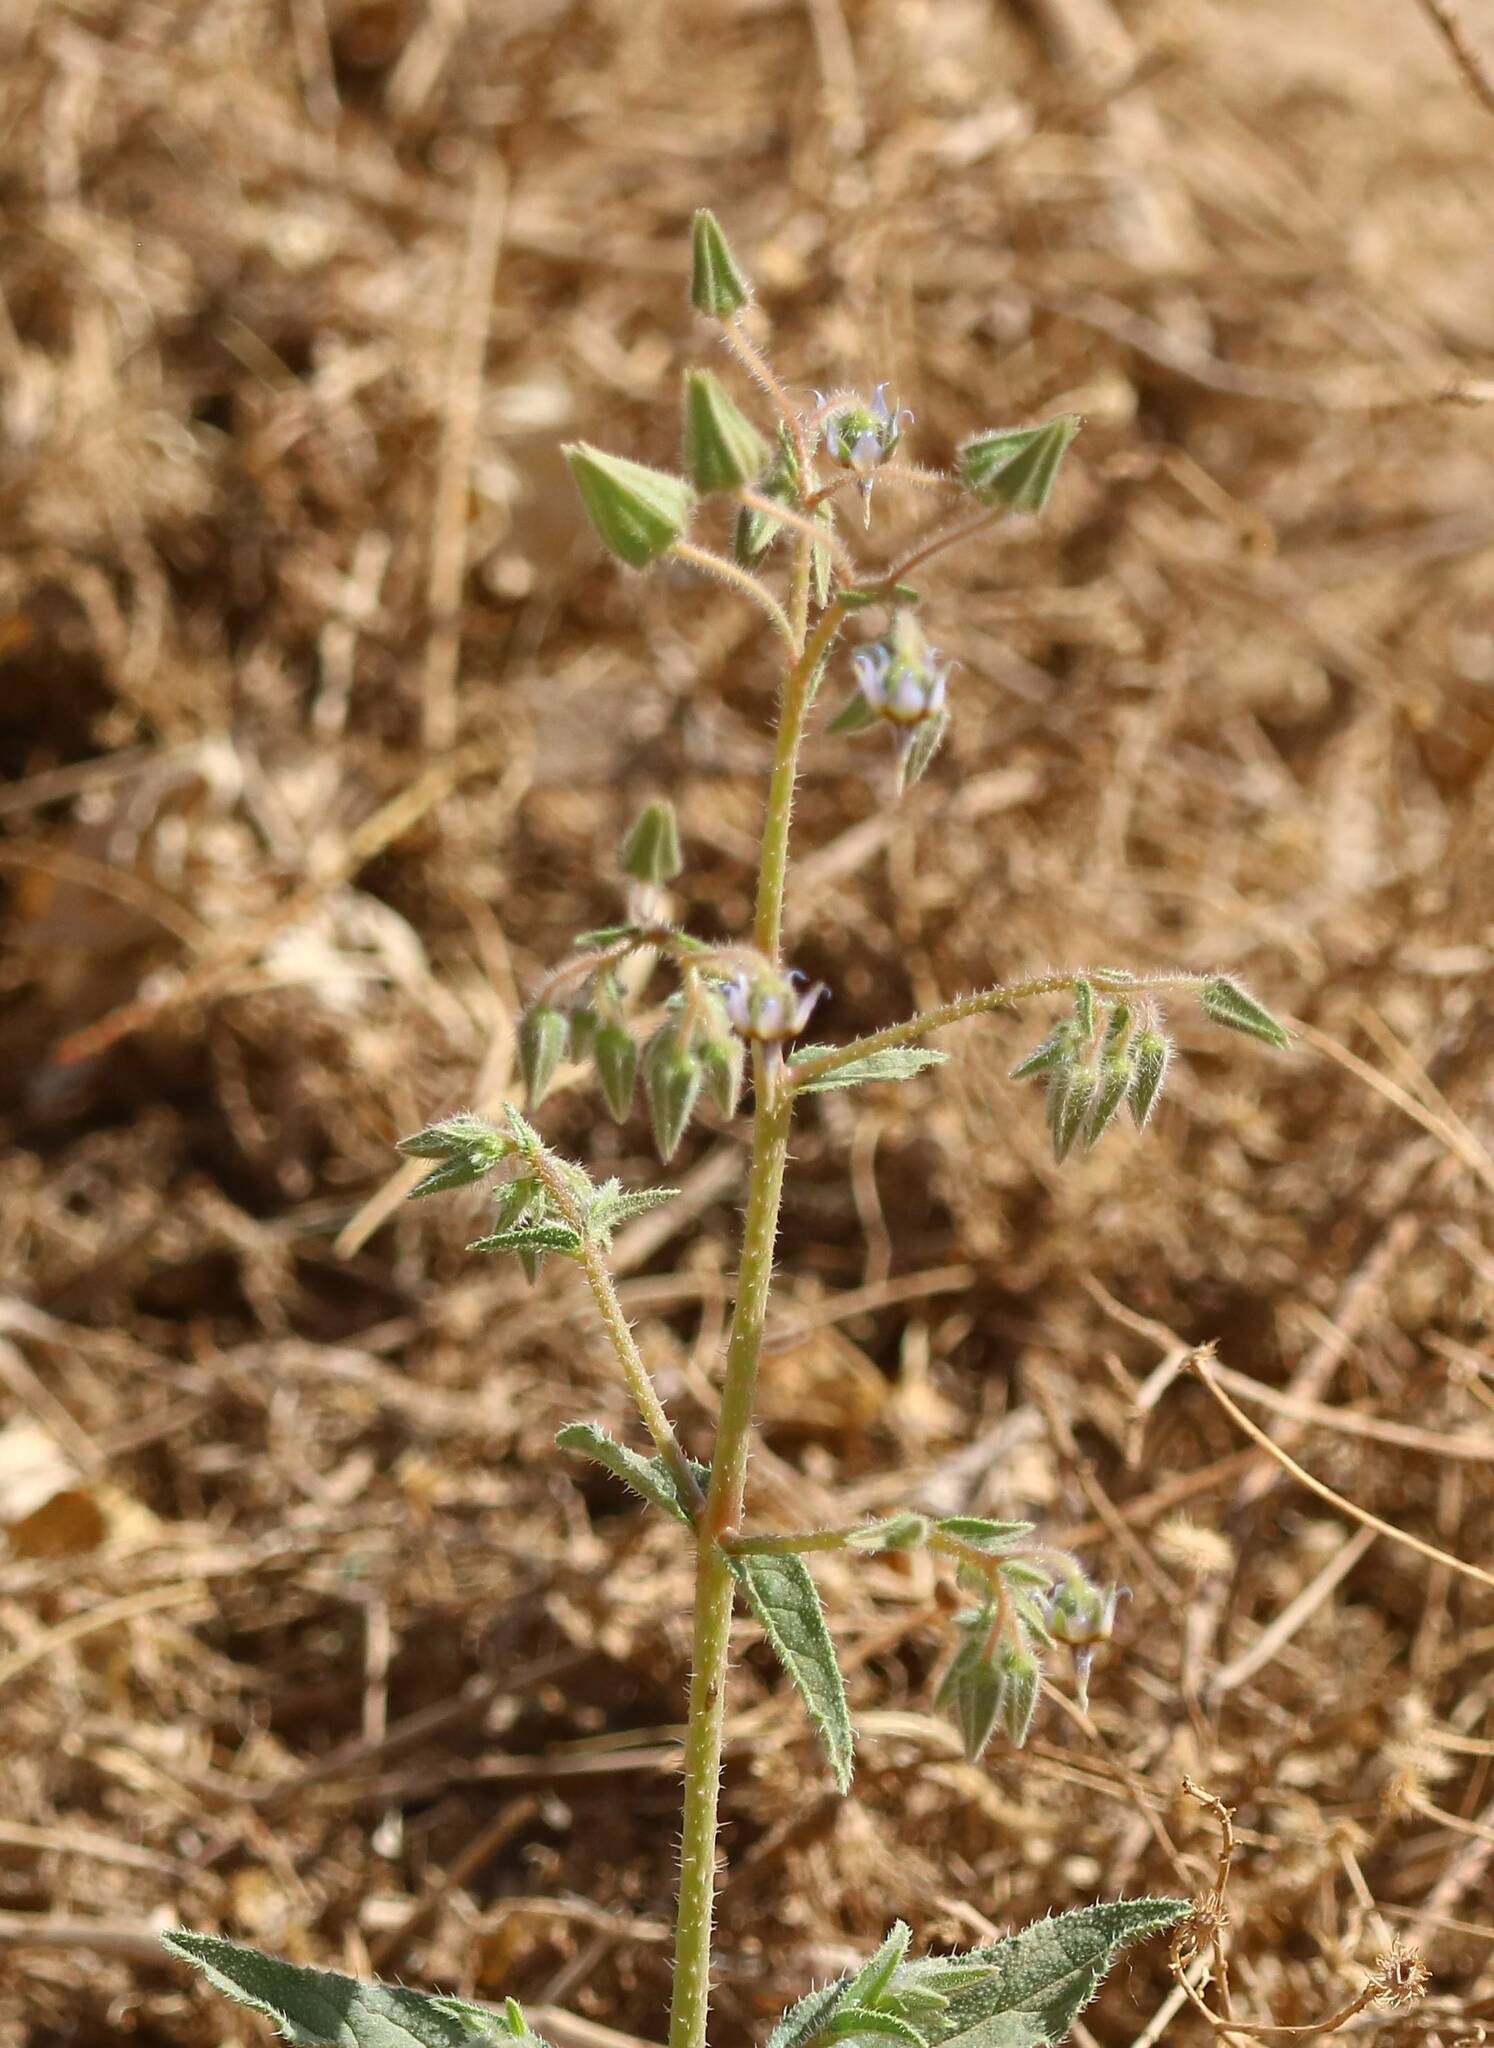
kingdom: Plantae
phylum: Tracheophyta
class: Magnoliopsida
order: Boraginales
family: Boraginaceae
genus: Trichodesma
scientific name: Trichodesma africanum
